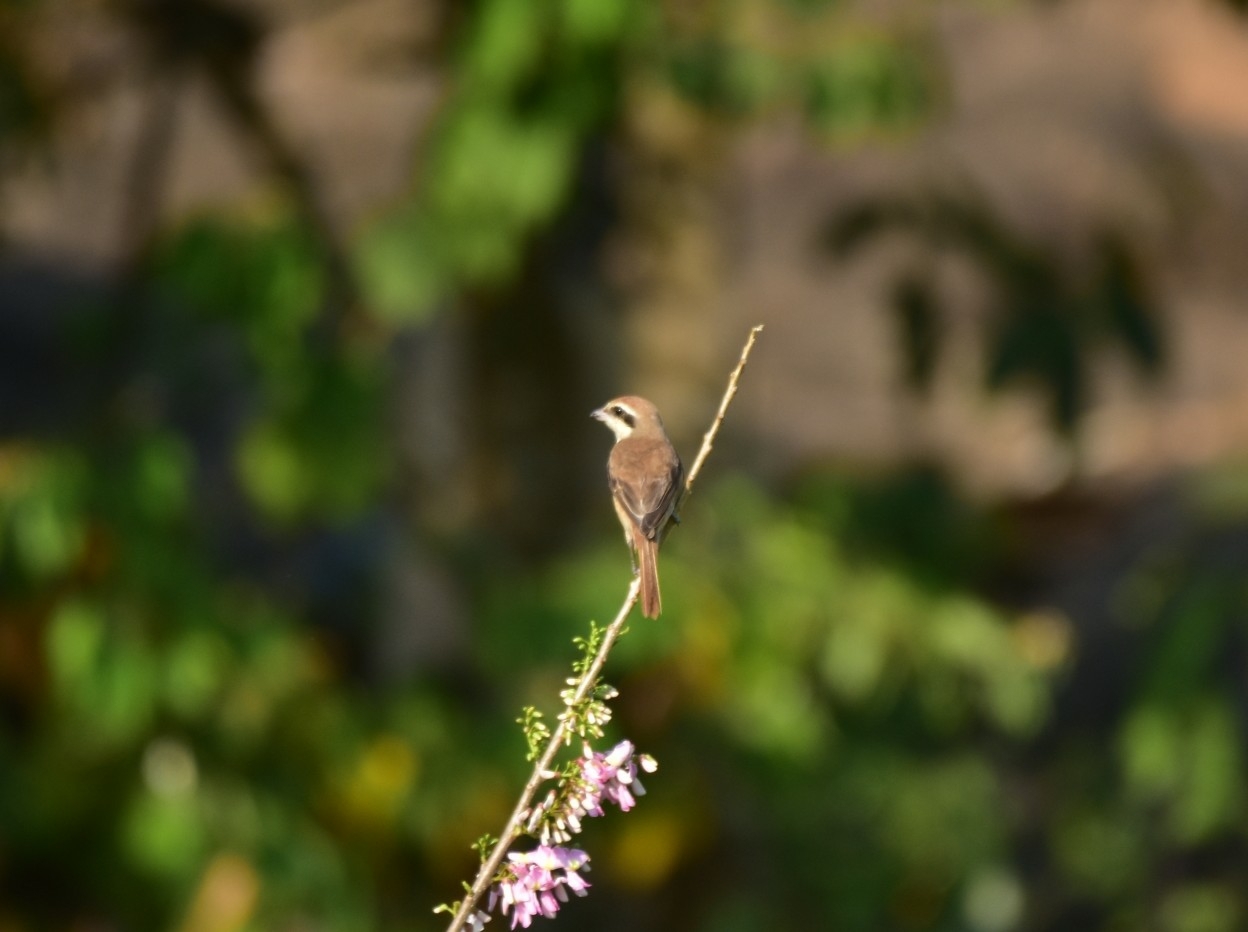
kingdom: Animalia
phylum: Chordata
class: Aves
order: Passeriformes
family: Laniidae
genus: Lanius
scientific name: Lanius cristatus
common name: Brown shrike
